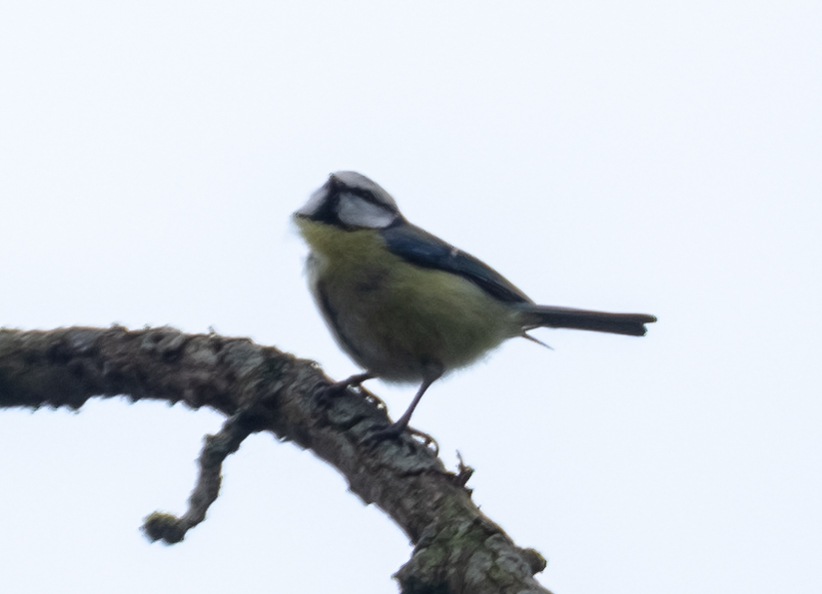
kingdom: Animalia
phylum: Chordata
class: Aves
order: Passeriformes
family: Paridae
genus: Cyanistes
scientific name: Cyanistes caeruleus
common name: Eurasian blue tit
